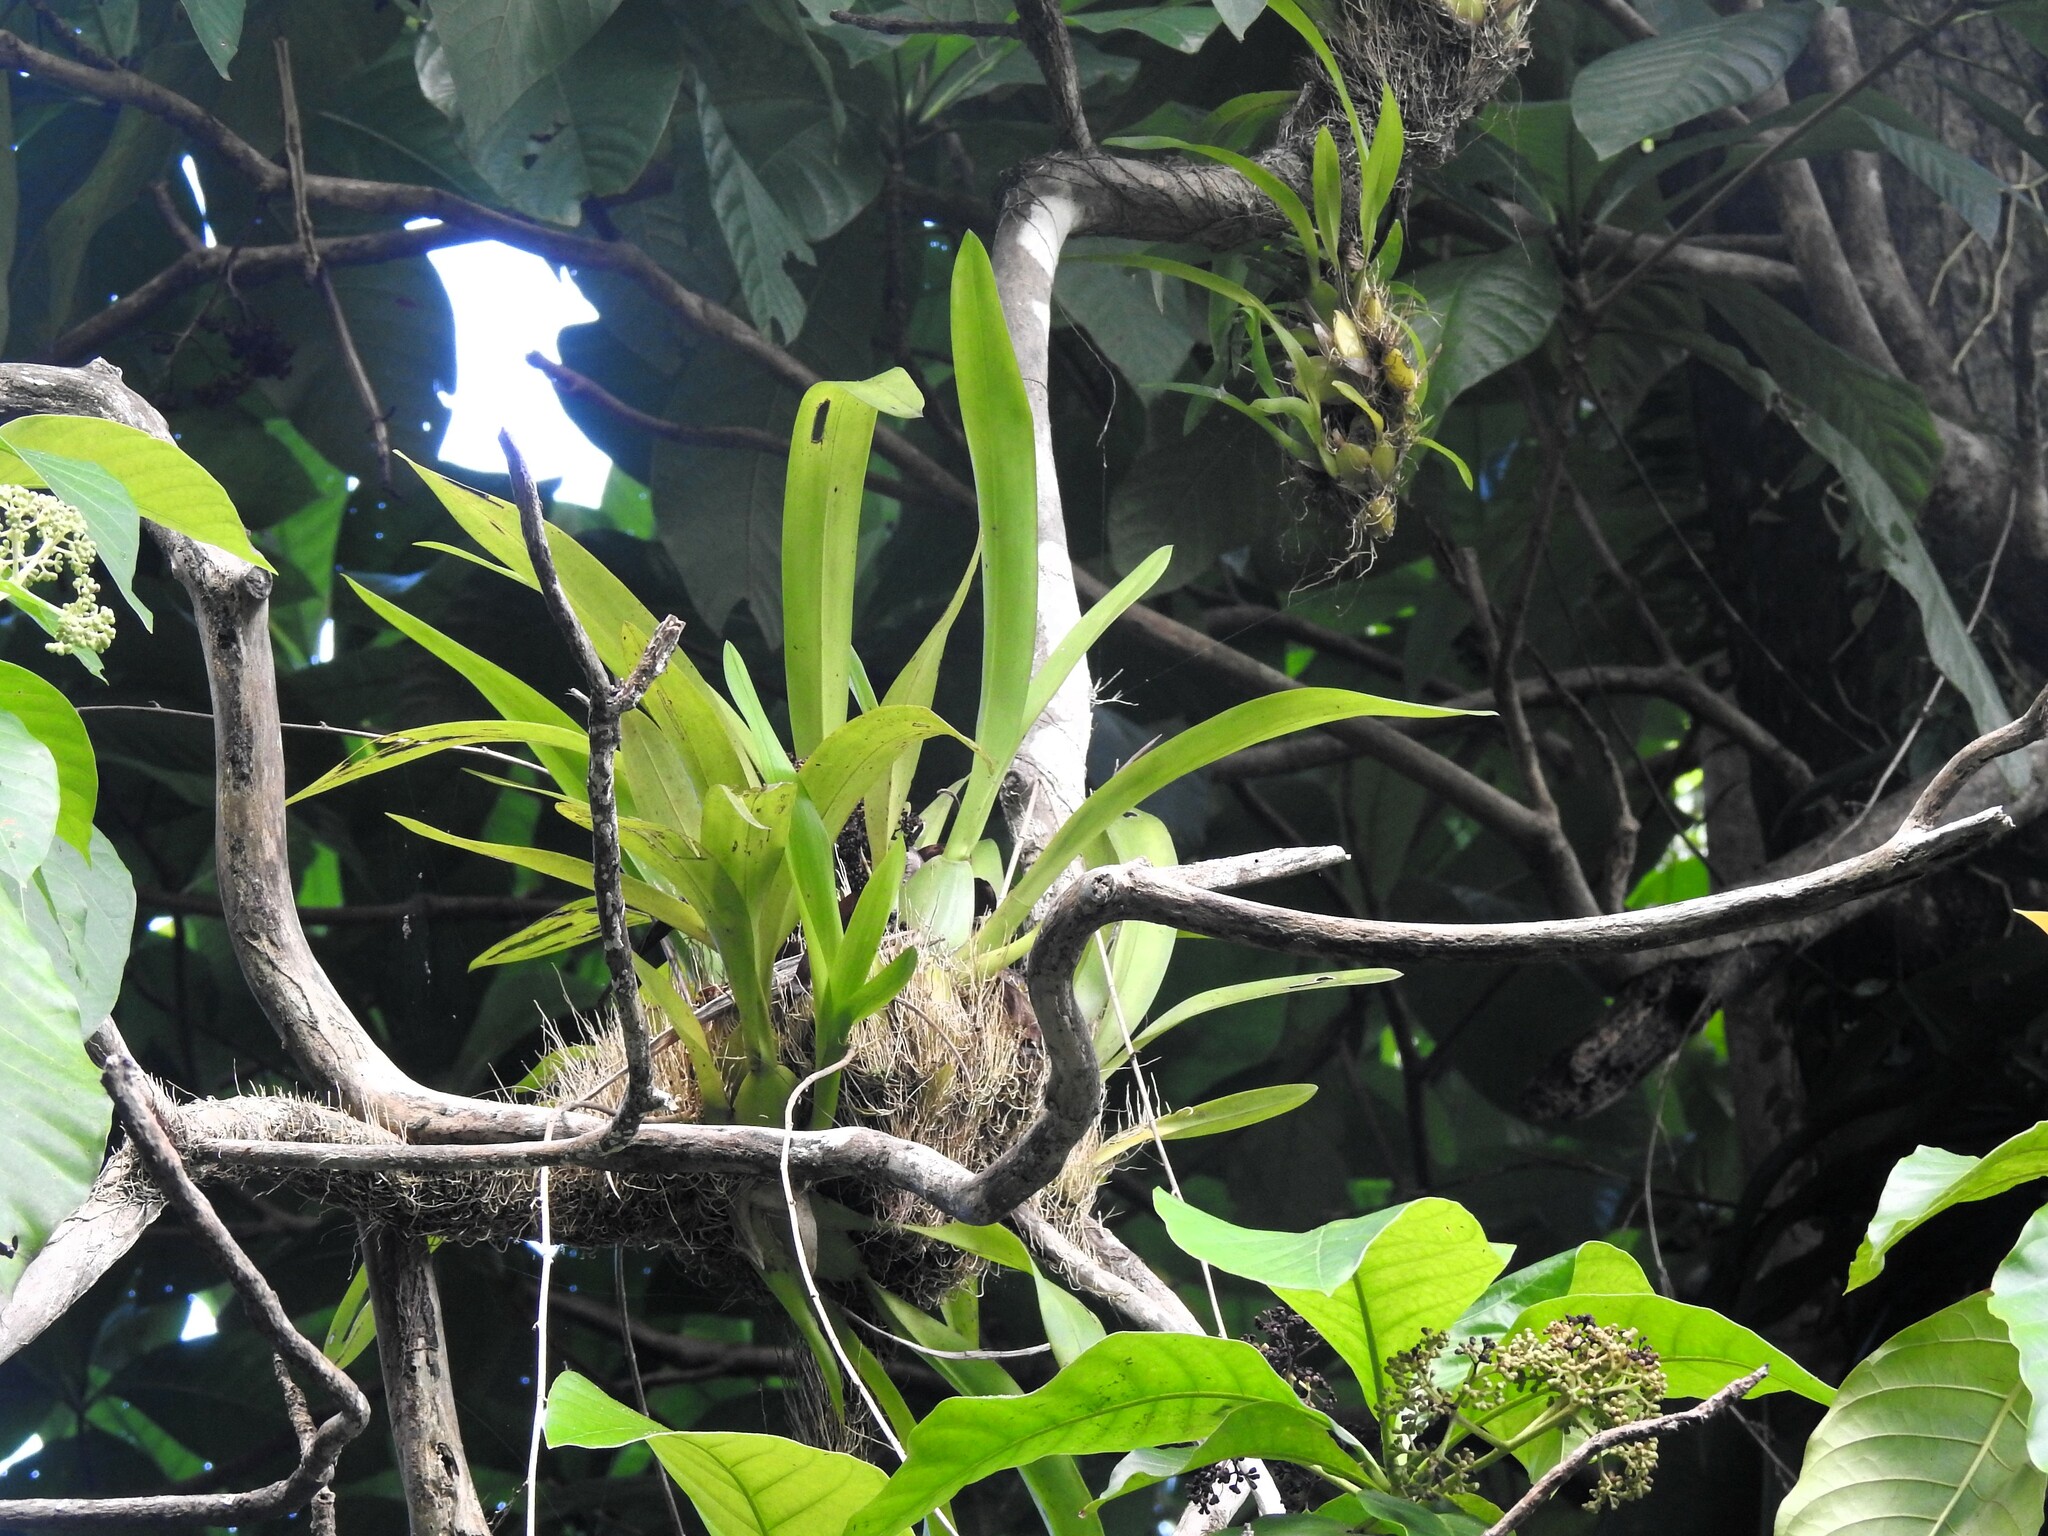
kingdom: Plantae
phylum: Tracheophyta
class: Liliopsida
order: Asparagales
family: Orchidaceae
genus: Oncidium
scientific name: Oncidium altissimum
